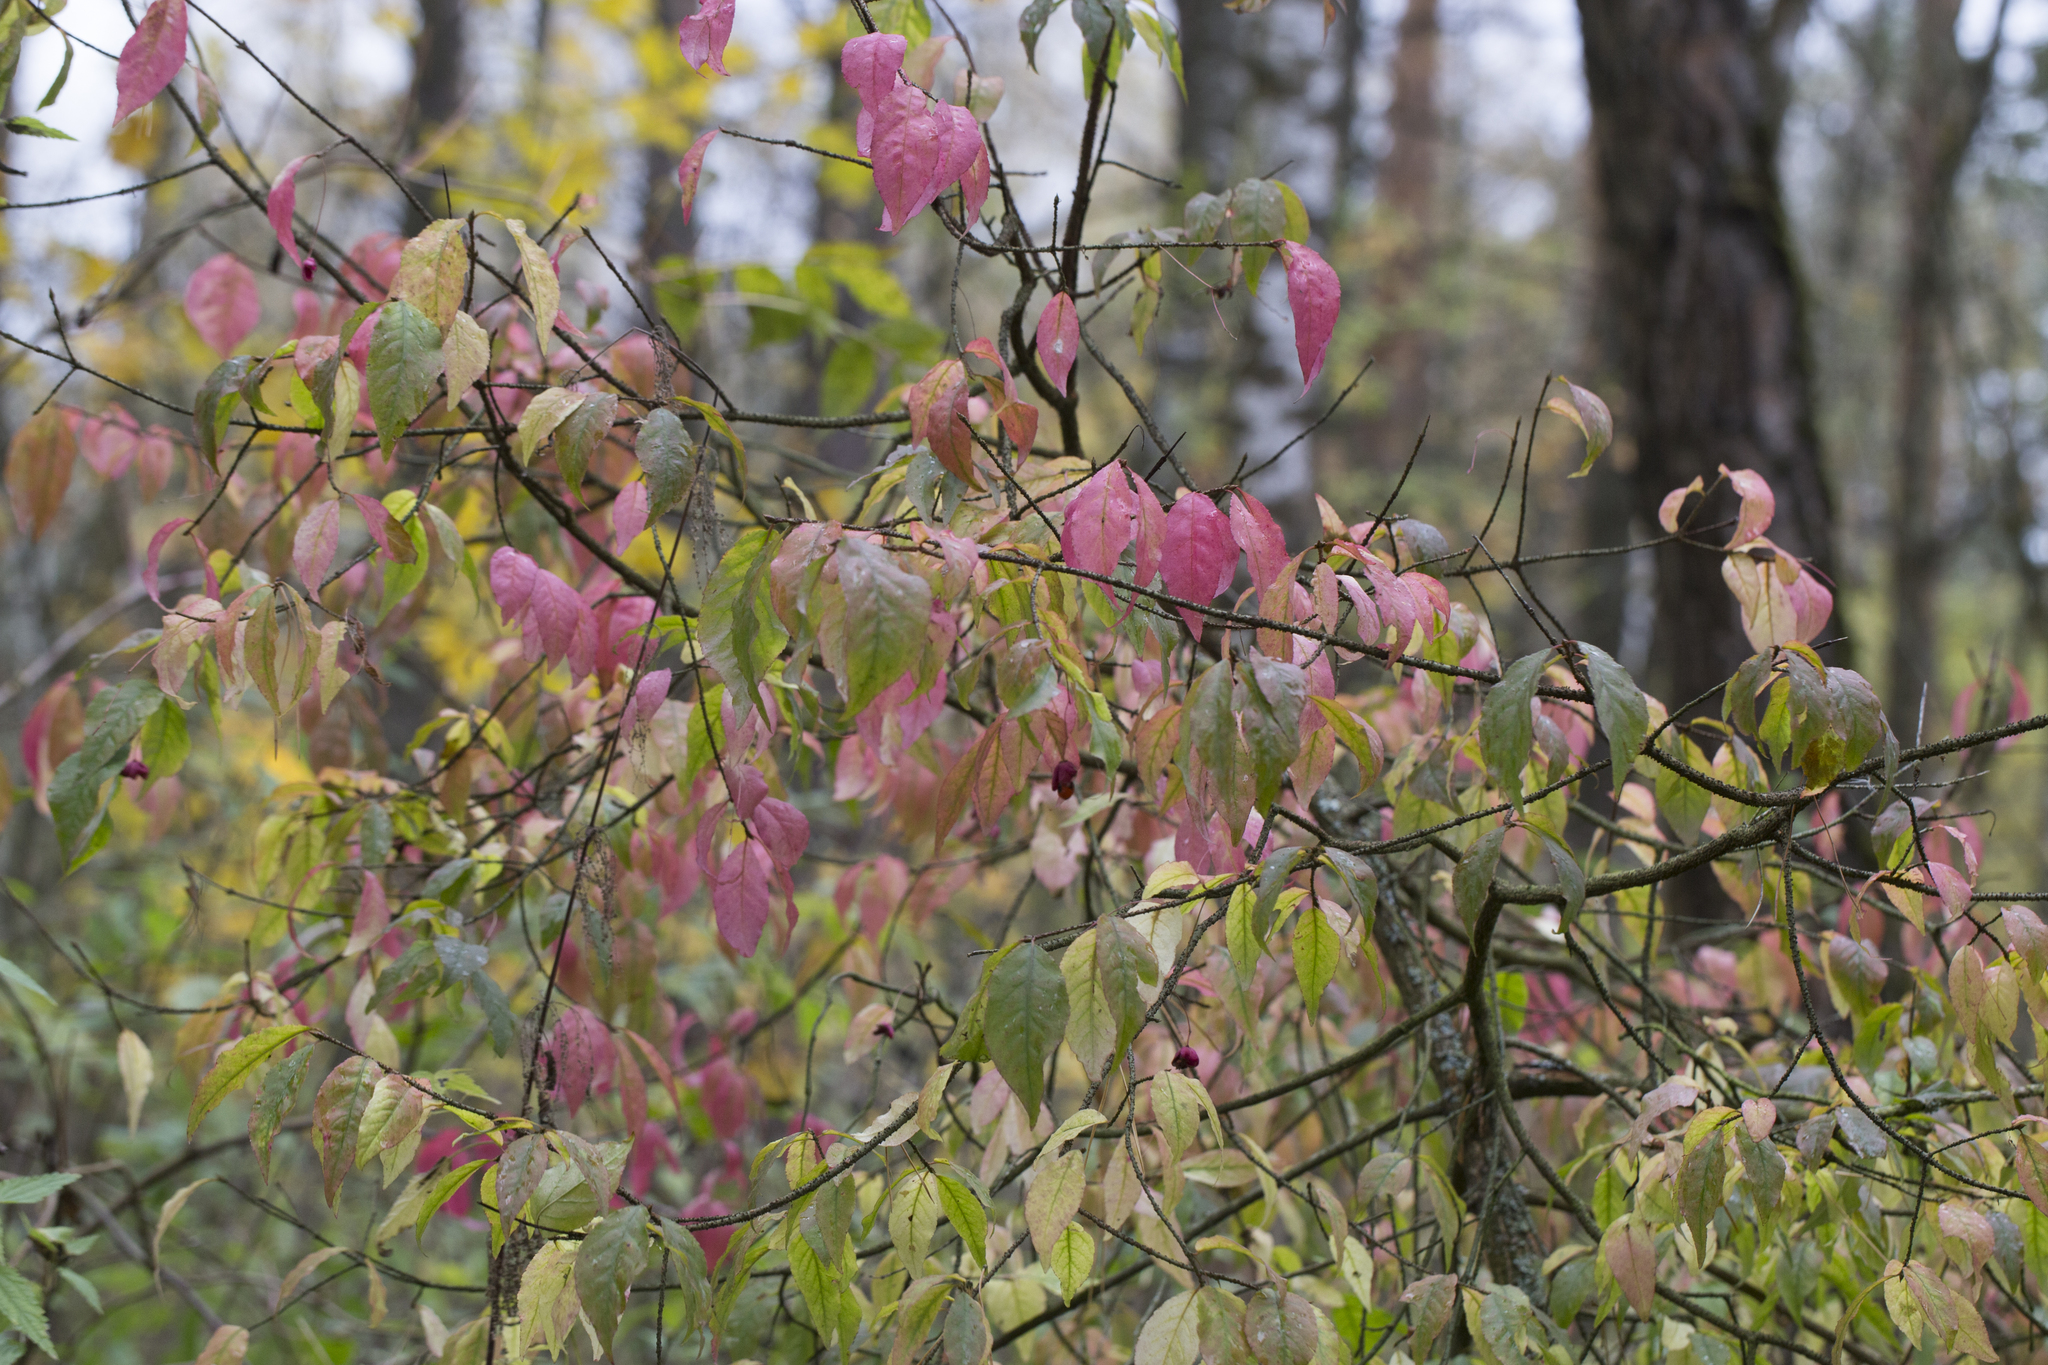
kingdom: Plantae
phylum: Tracheophyta
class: Magnoliopsida
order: Celastrales
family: Celastraceae
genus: Euonymus
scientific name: Euonymus verrucosus
